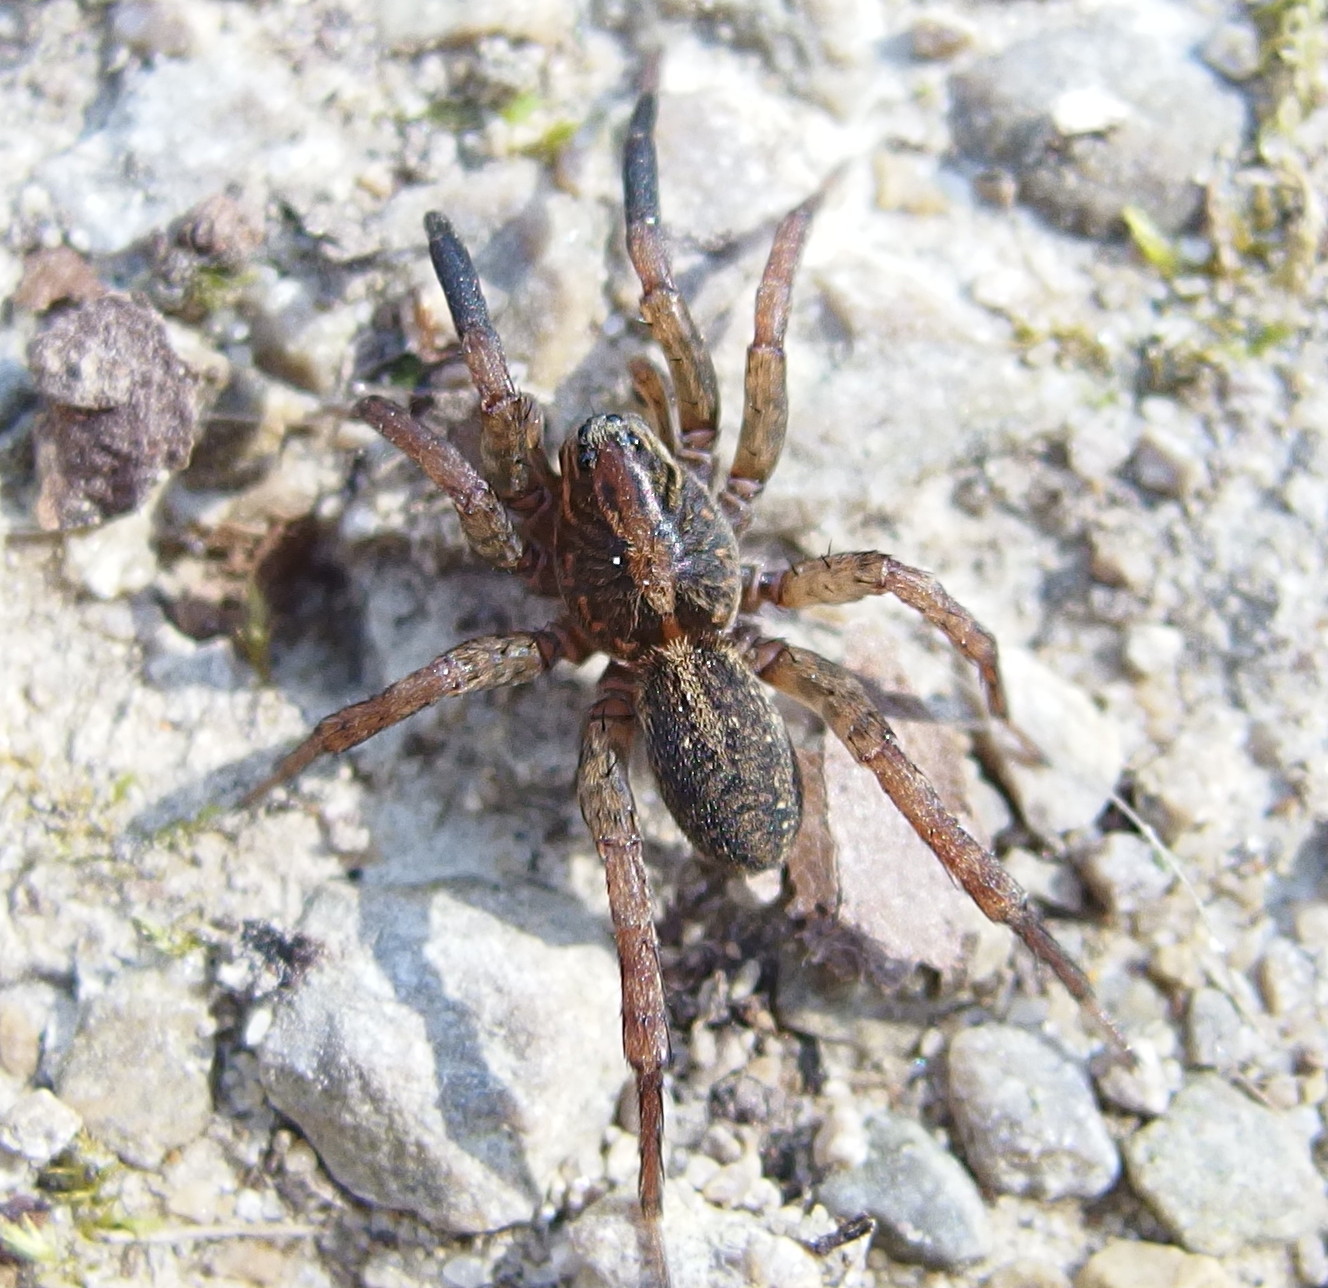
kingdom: Animalia
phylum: Arthropoda
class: Arachnida
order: Araneae
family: Lycosidae
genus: Alopecosa
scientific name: Alopecosa pulverulenta
